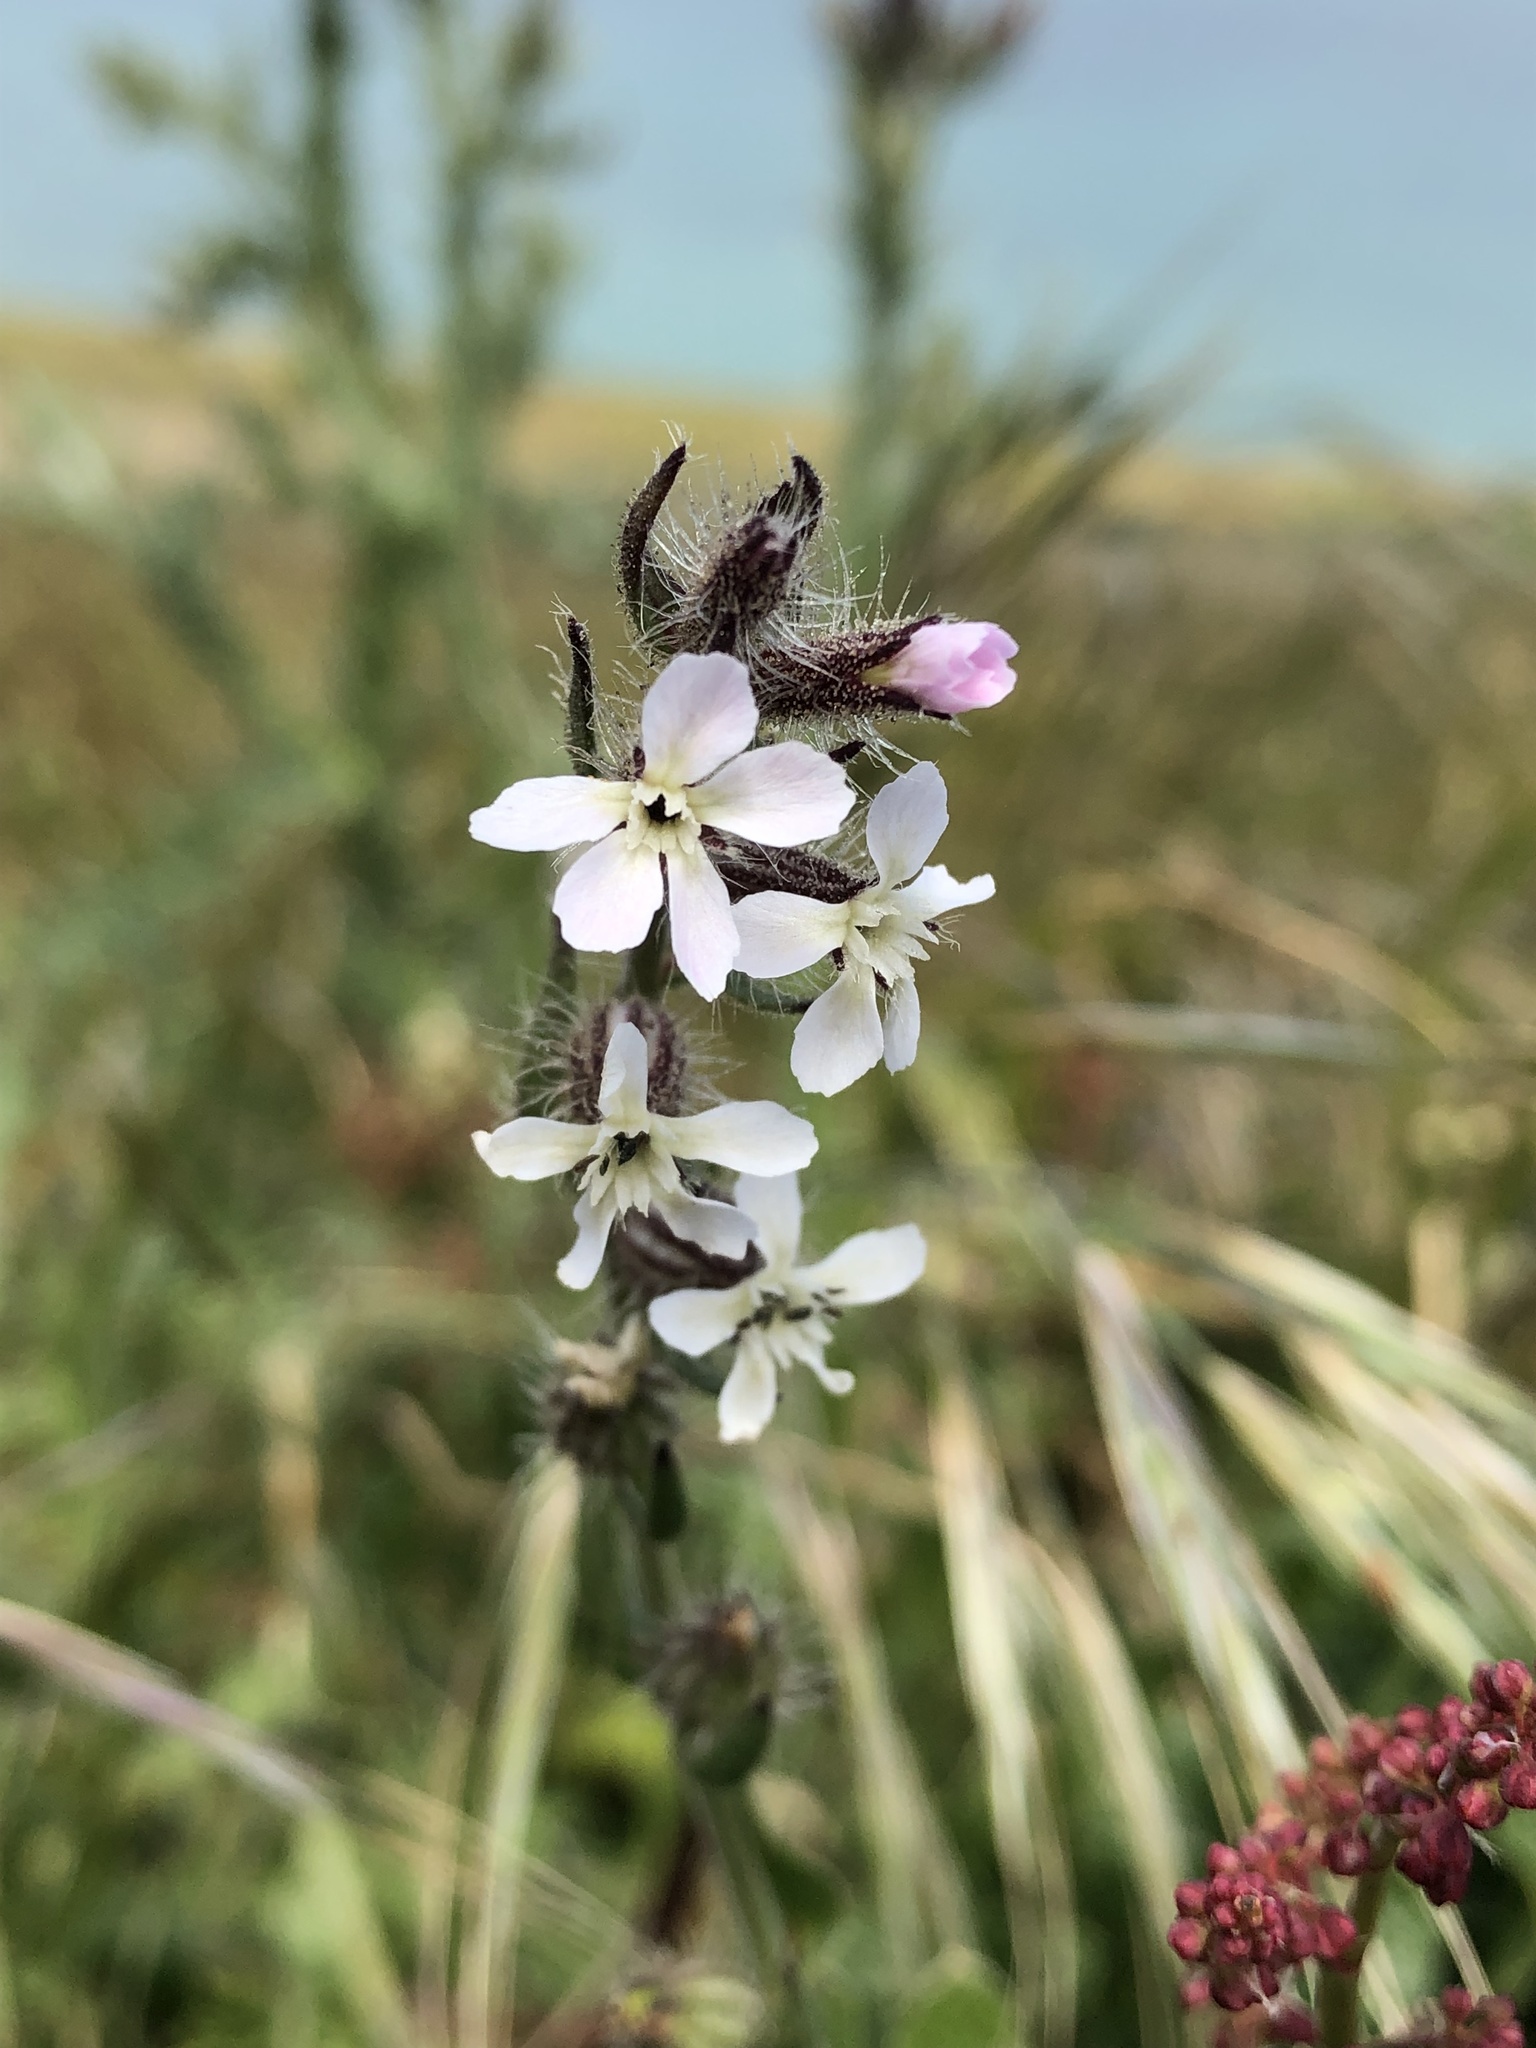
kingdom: Plantae
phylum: Tracheophyta
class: Magnoliopsida
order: Caryophyllales
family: Caryophyllaceae
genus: Silene
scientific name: Silene gallica
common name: Small-flowered catchfly
